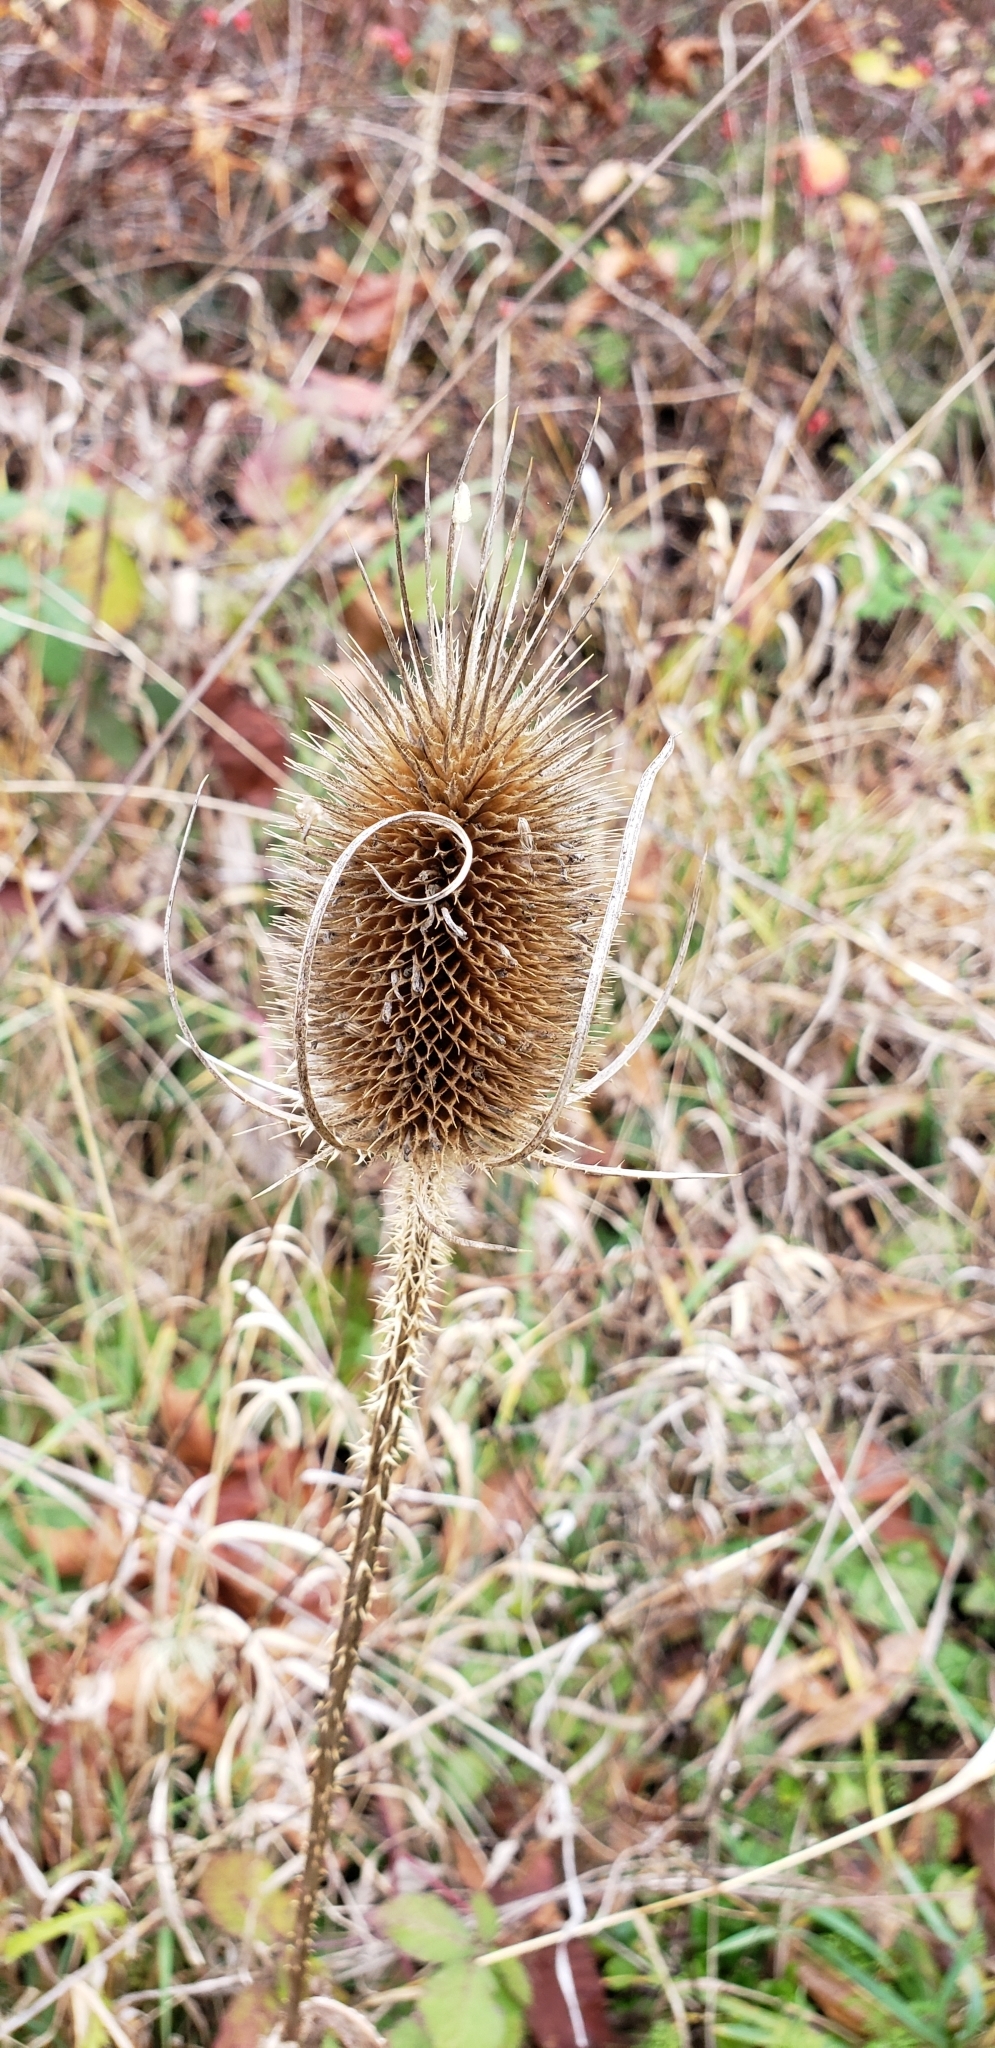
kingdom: Plantae
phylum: Tracheophyta
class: Magnoliopsida
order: Dipsacales
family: Caprifoliaceae
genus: Dipsacus
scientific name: Dipsacus fullonum
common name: Teasel
